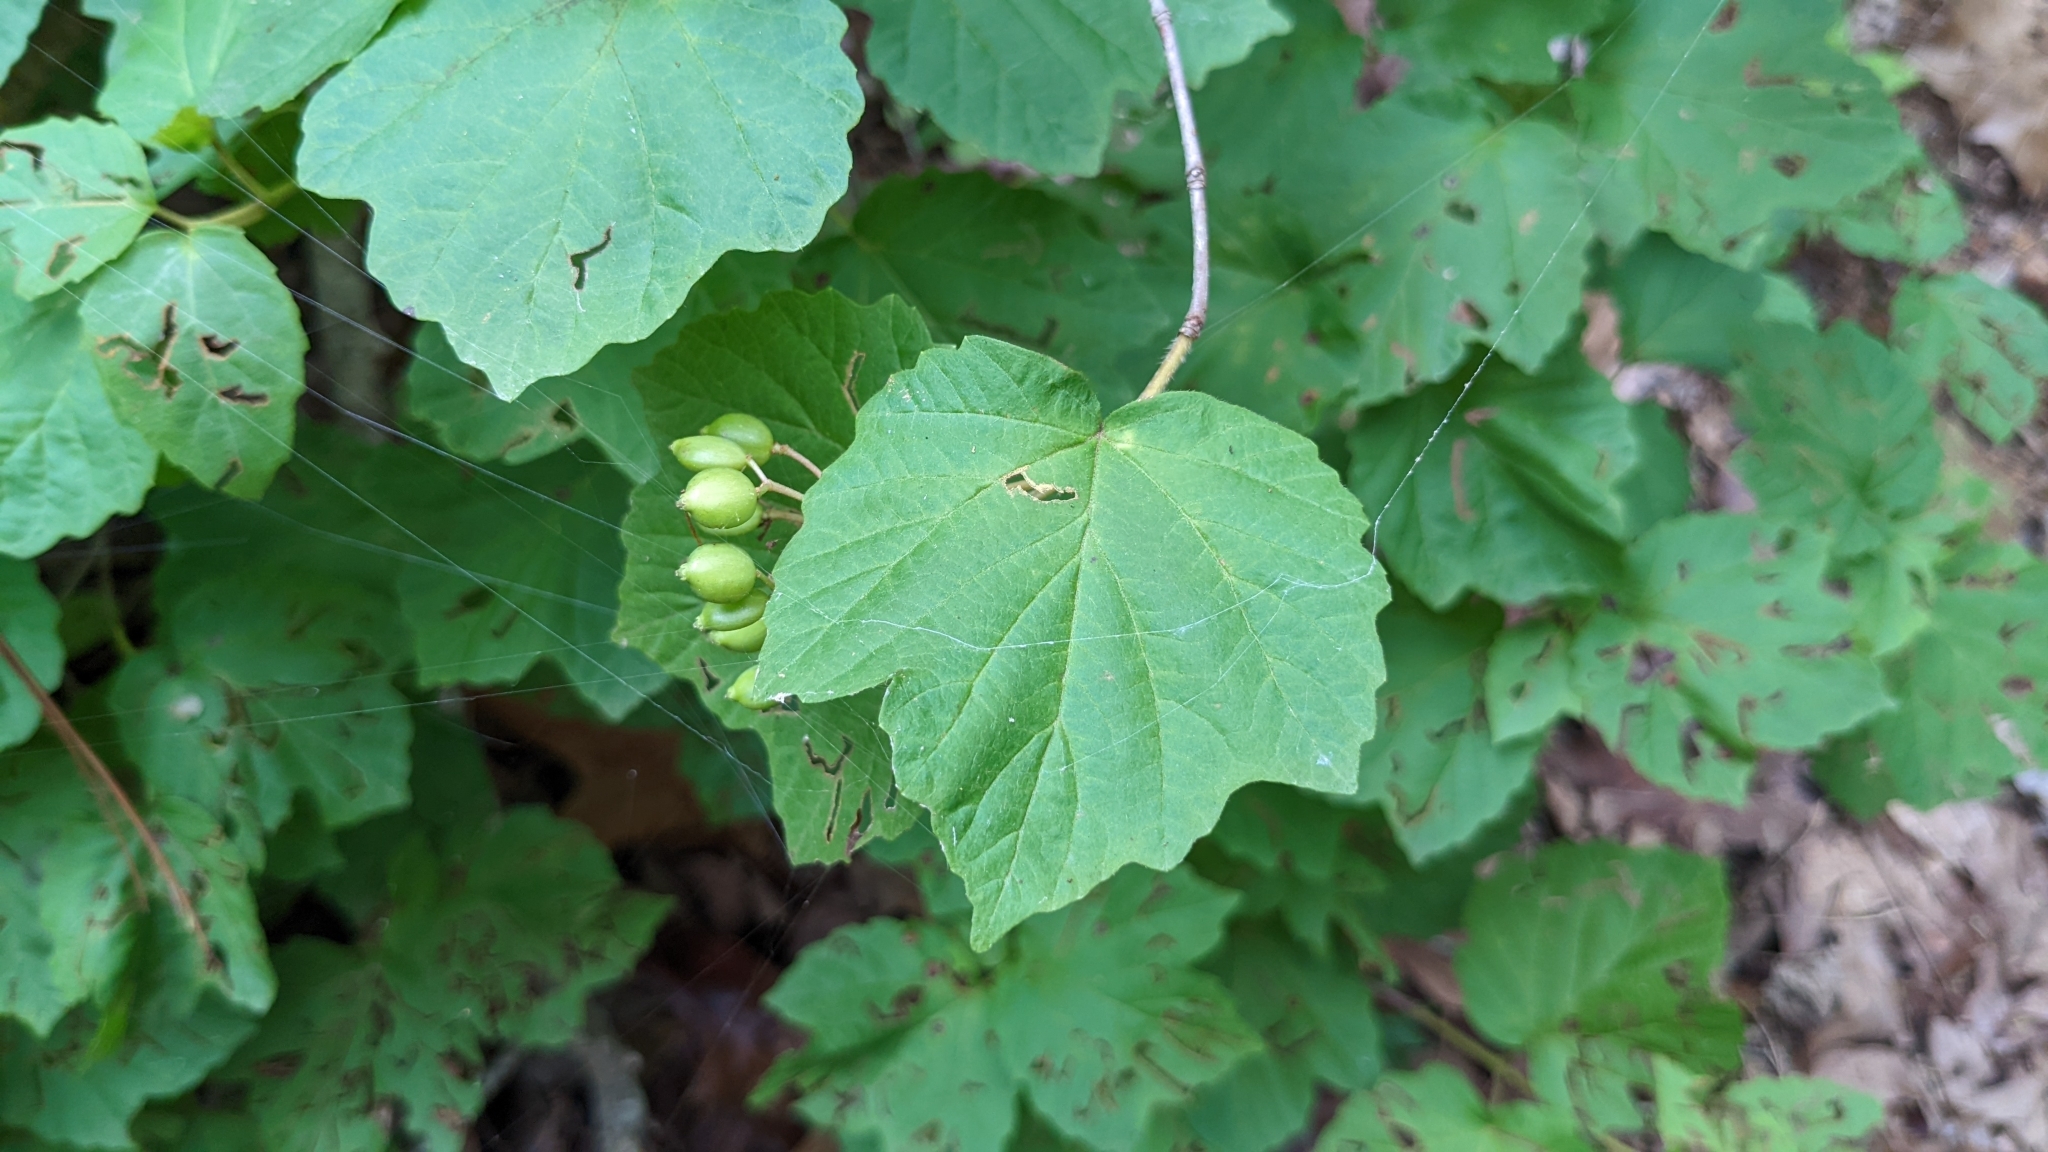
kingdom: Plantae
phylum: Tracheophyta
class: Magnoliopsida
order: Dipsacales
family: Viburnaceae
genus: Viburnum
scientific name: Viburnum acerifolium
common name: Dockmackie
